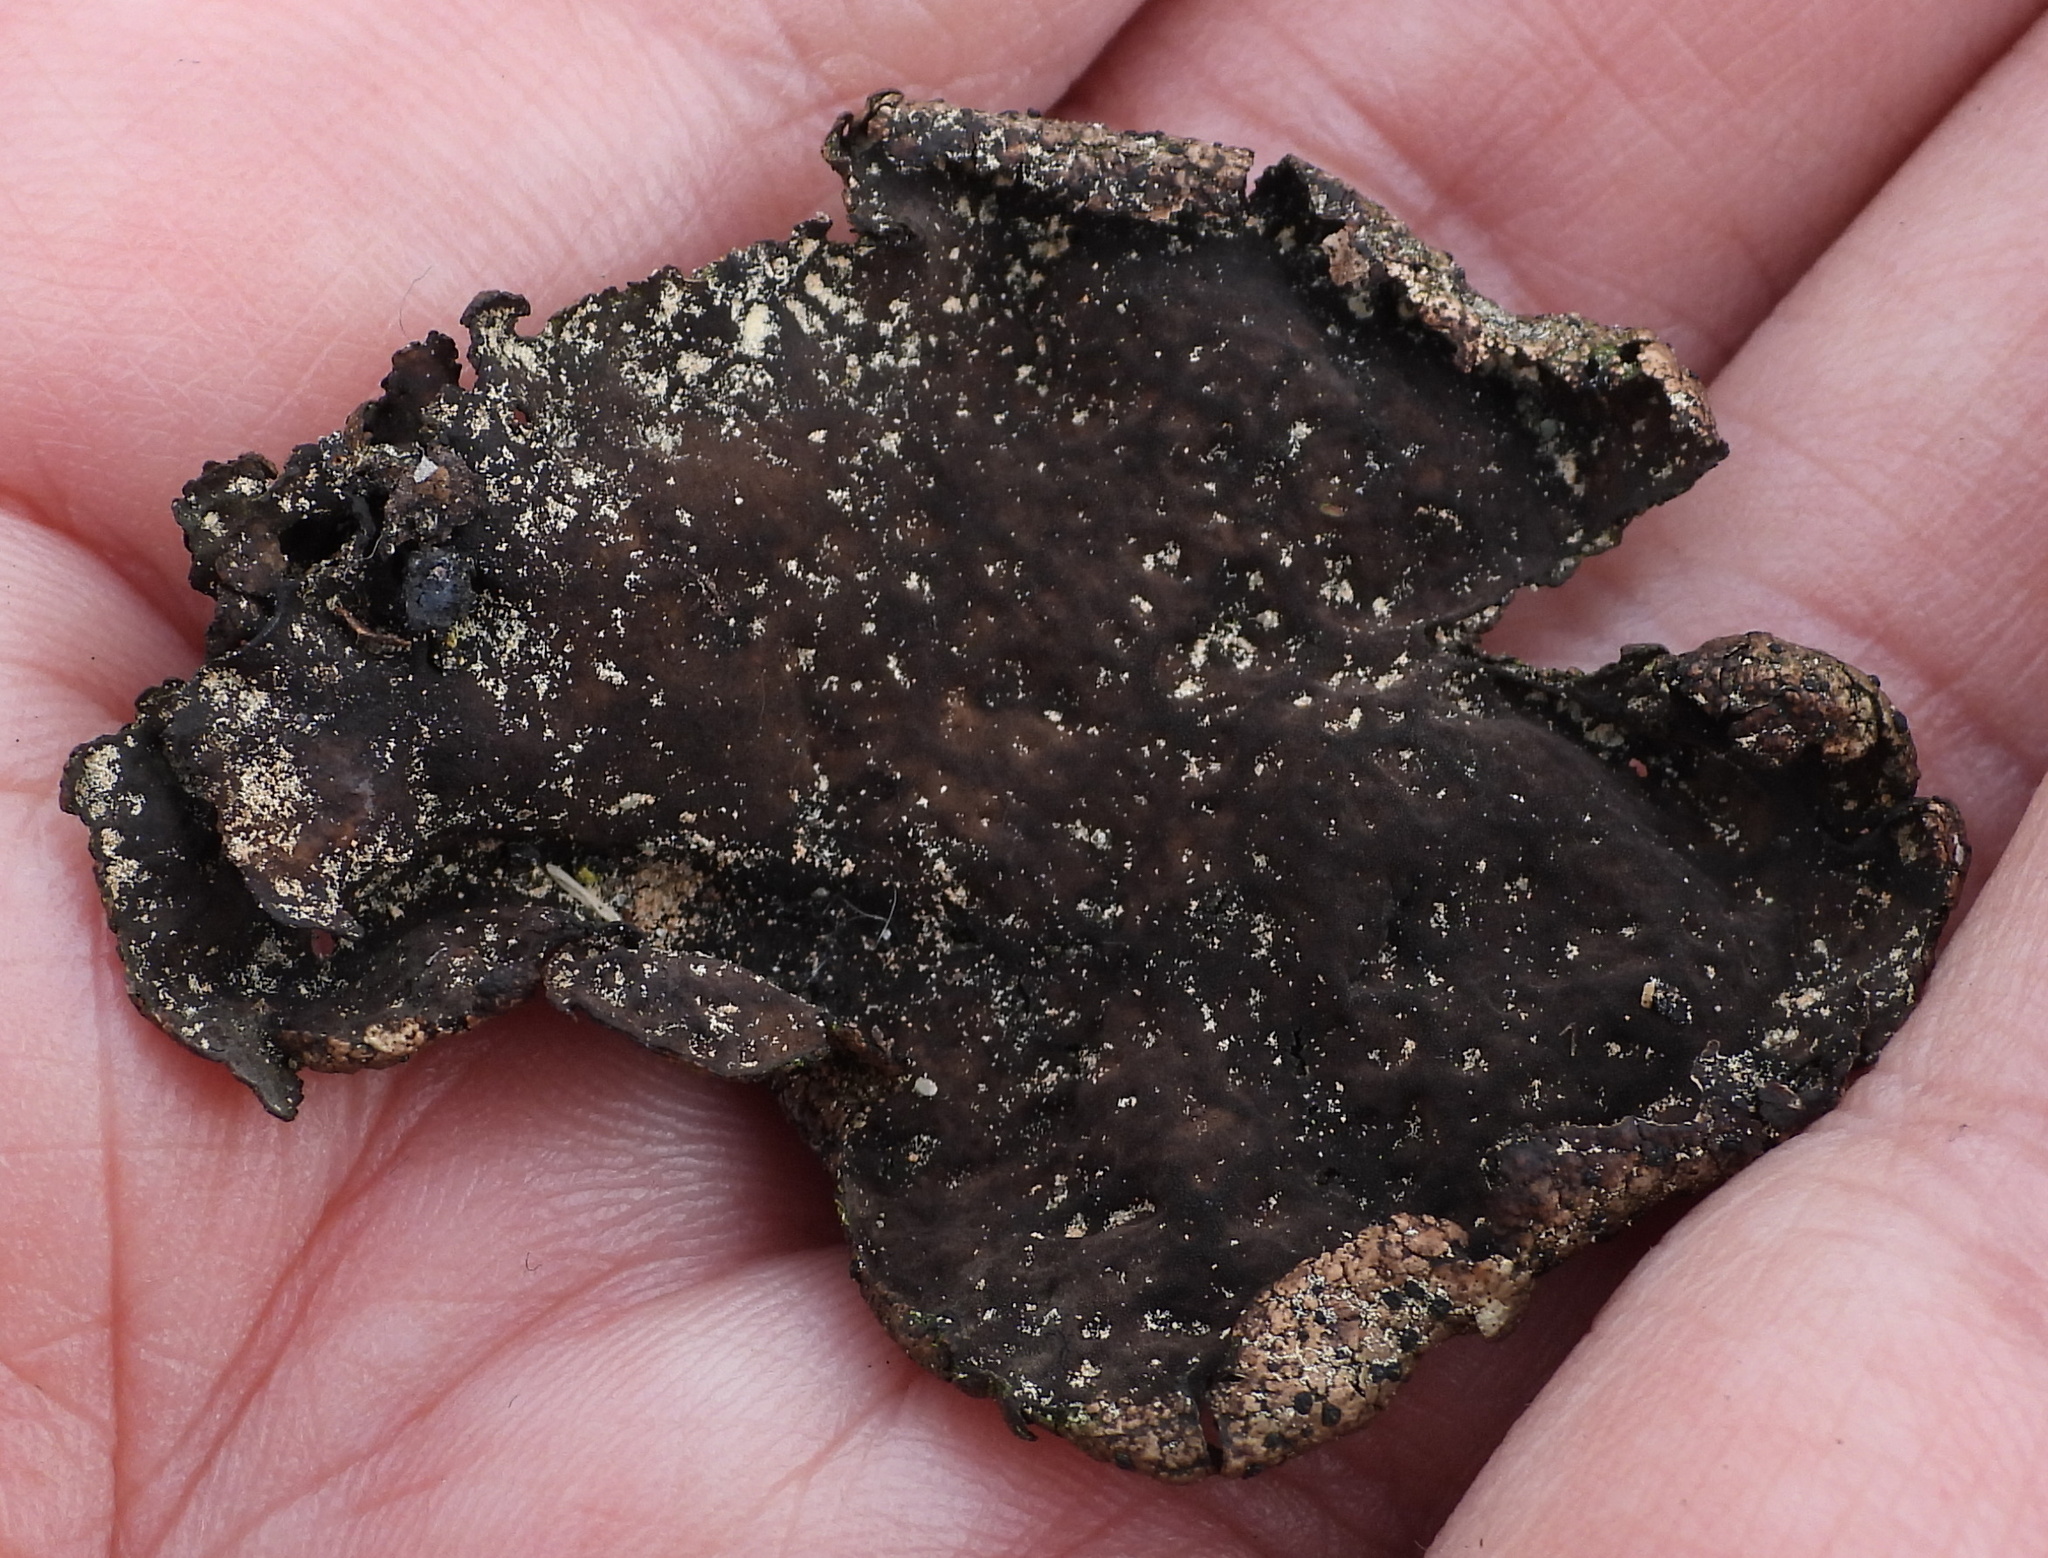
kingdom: Fungi
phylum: Ascomycota
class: Lecanoromycetes
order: Umbilicariales
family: Umbilicariaceae
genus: Umbilicaria
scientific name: Umbilicaria torrefacta
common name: Punctured rock tripe lichen
